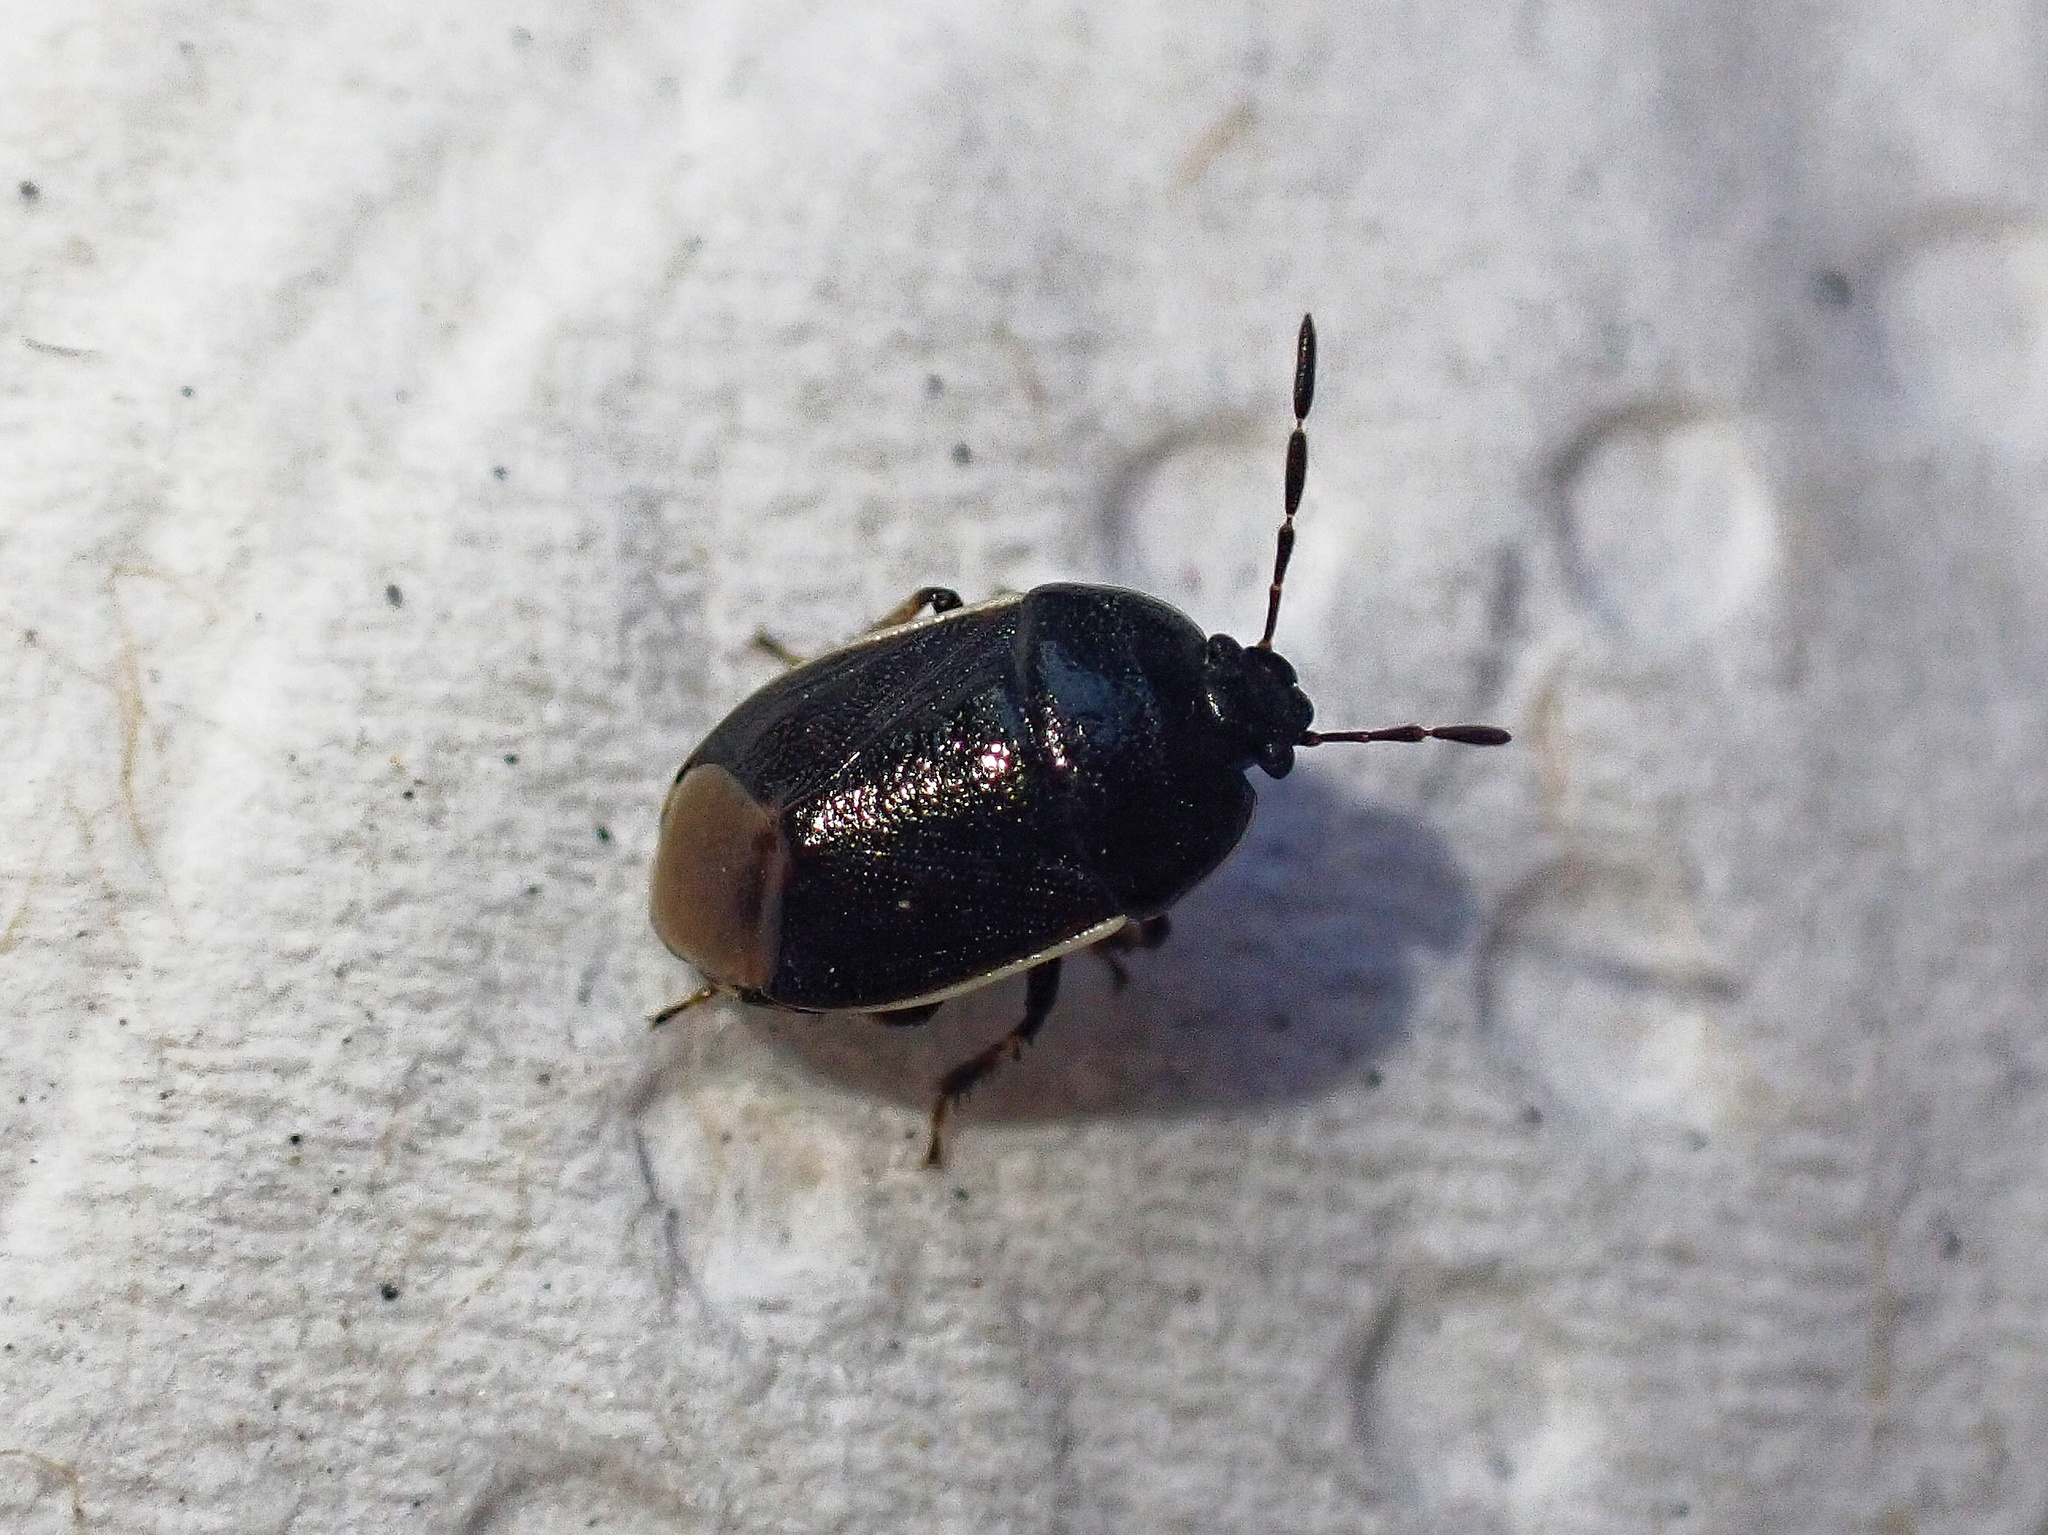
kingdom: Animalia
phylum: Arthropoda
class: Insecta
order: Hemiptera
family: Cydnidae
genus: Adomerus
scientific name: Adomerus maculipes
